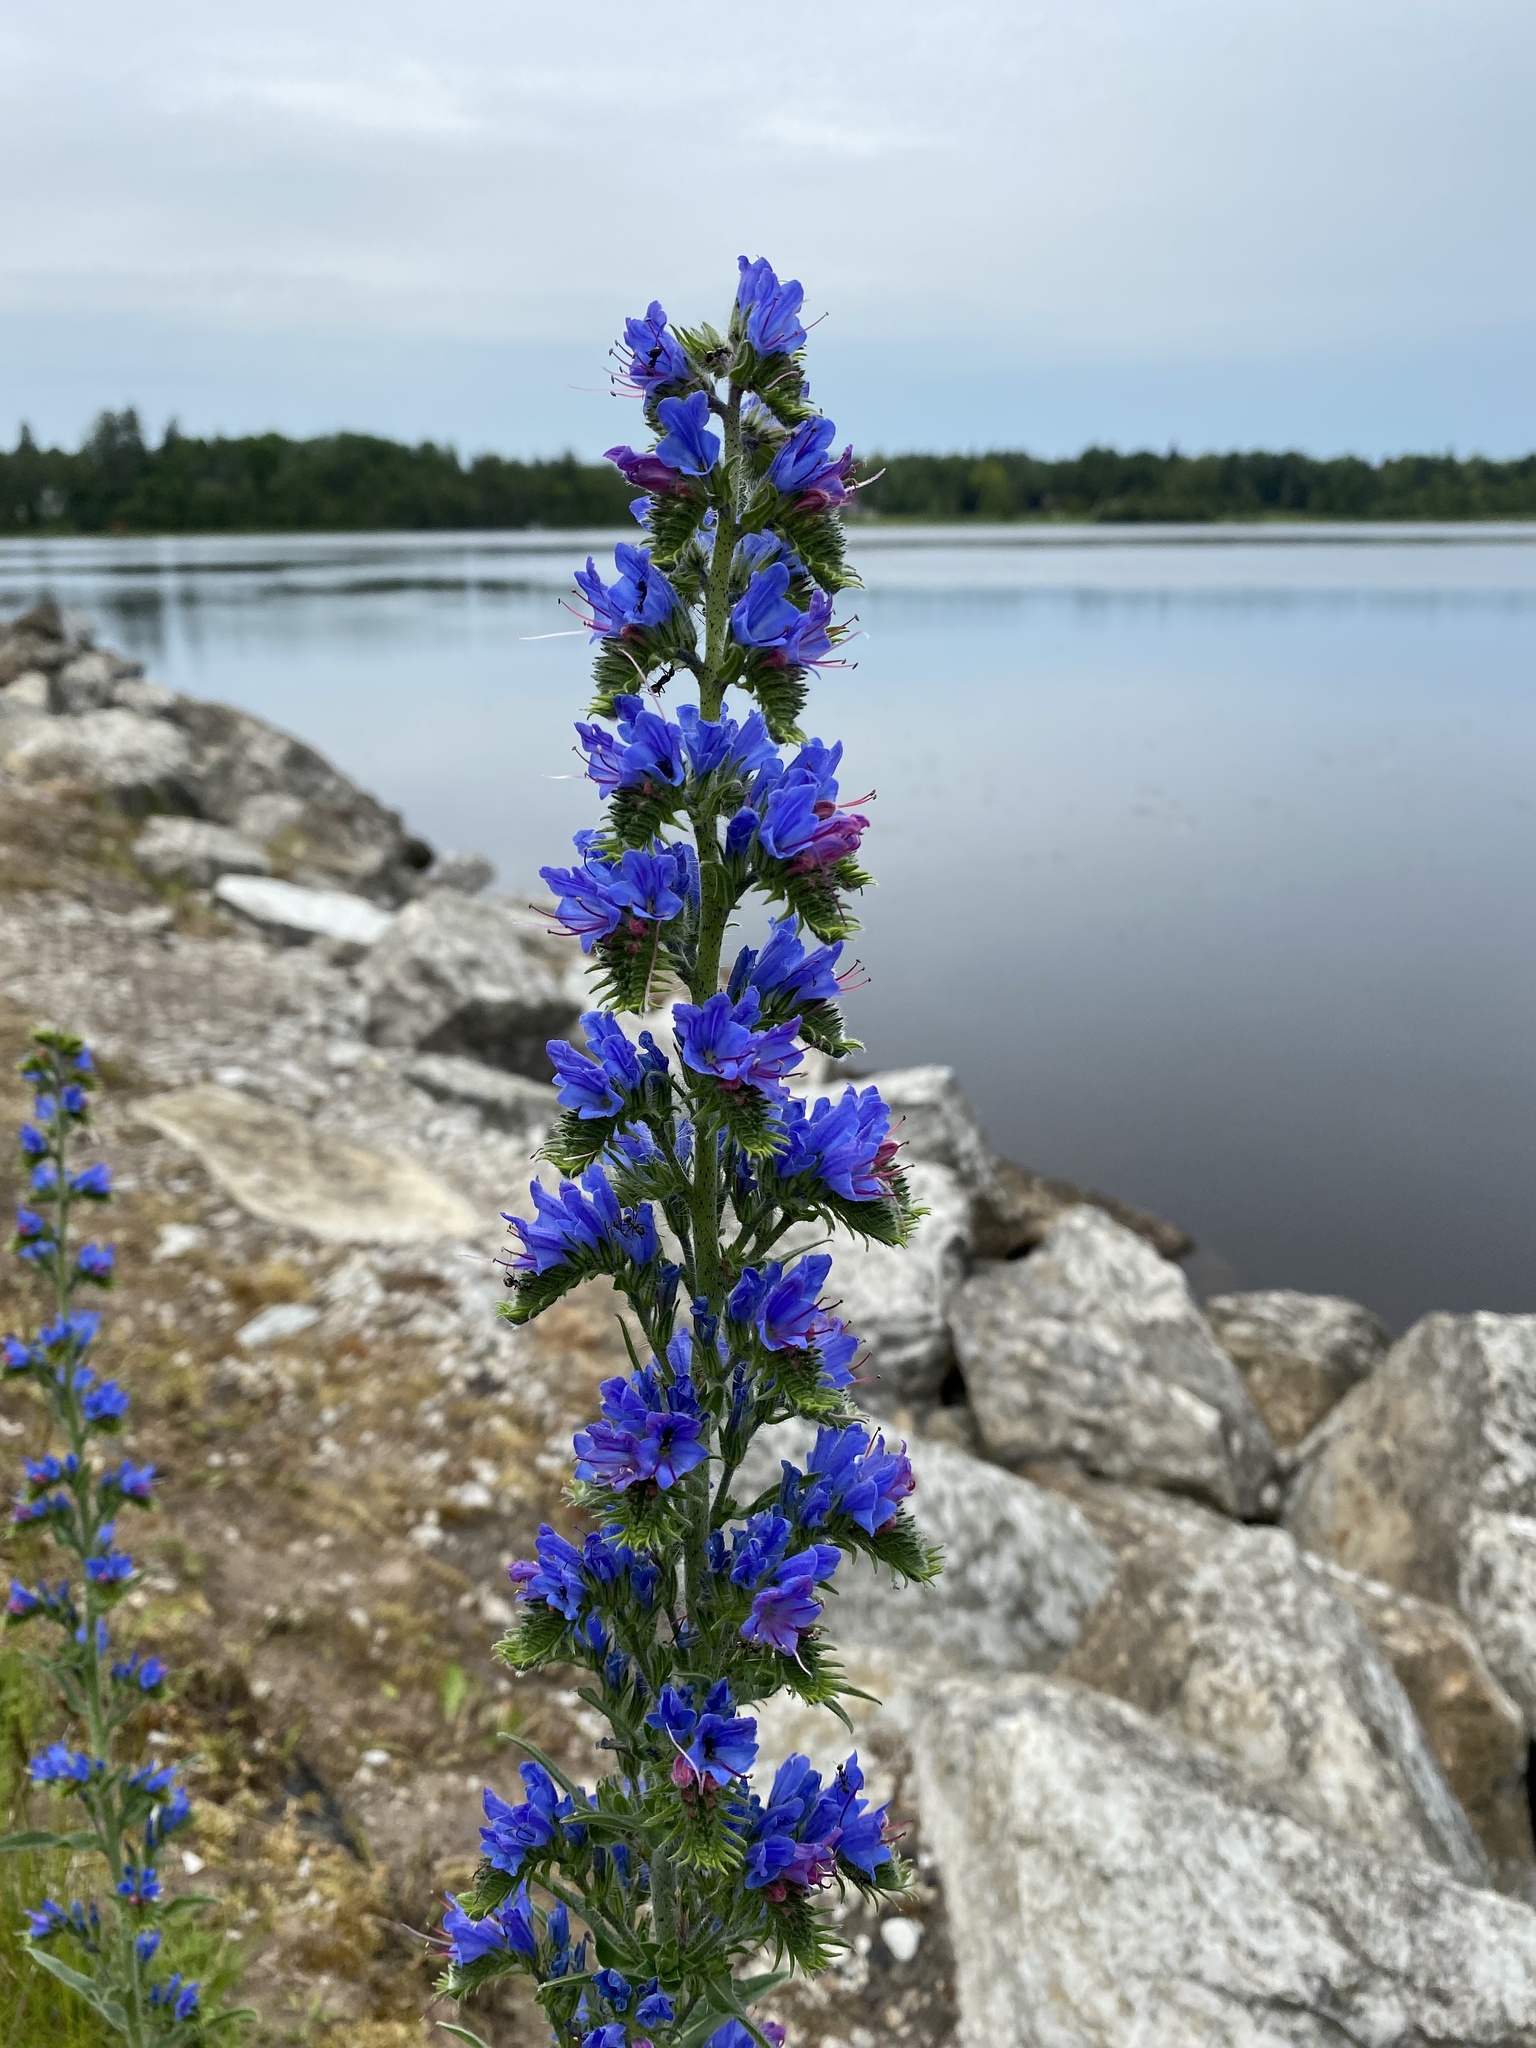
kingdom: Plantae
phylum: Tracheophyta
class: Magnoliopsida
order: Boraginales
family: Boraginaceae
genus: Echium
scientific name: Echium vulgare
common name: Common viper's bugloss
